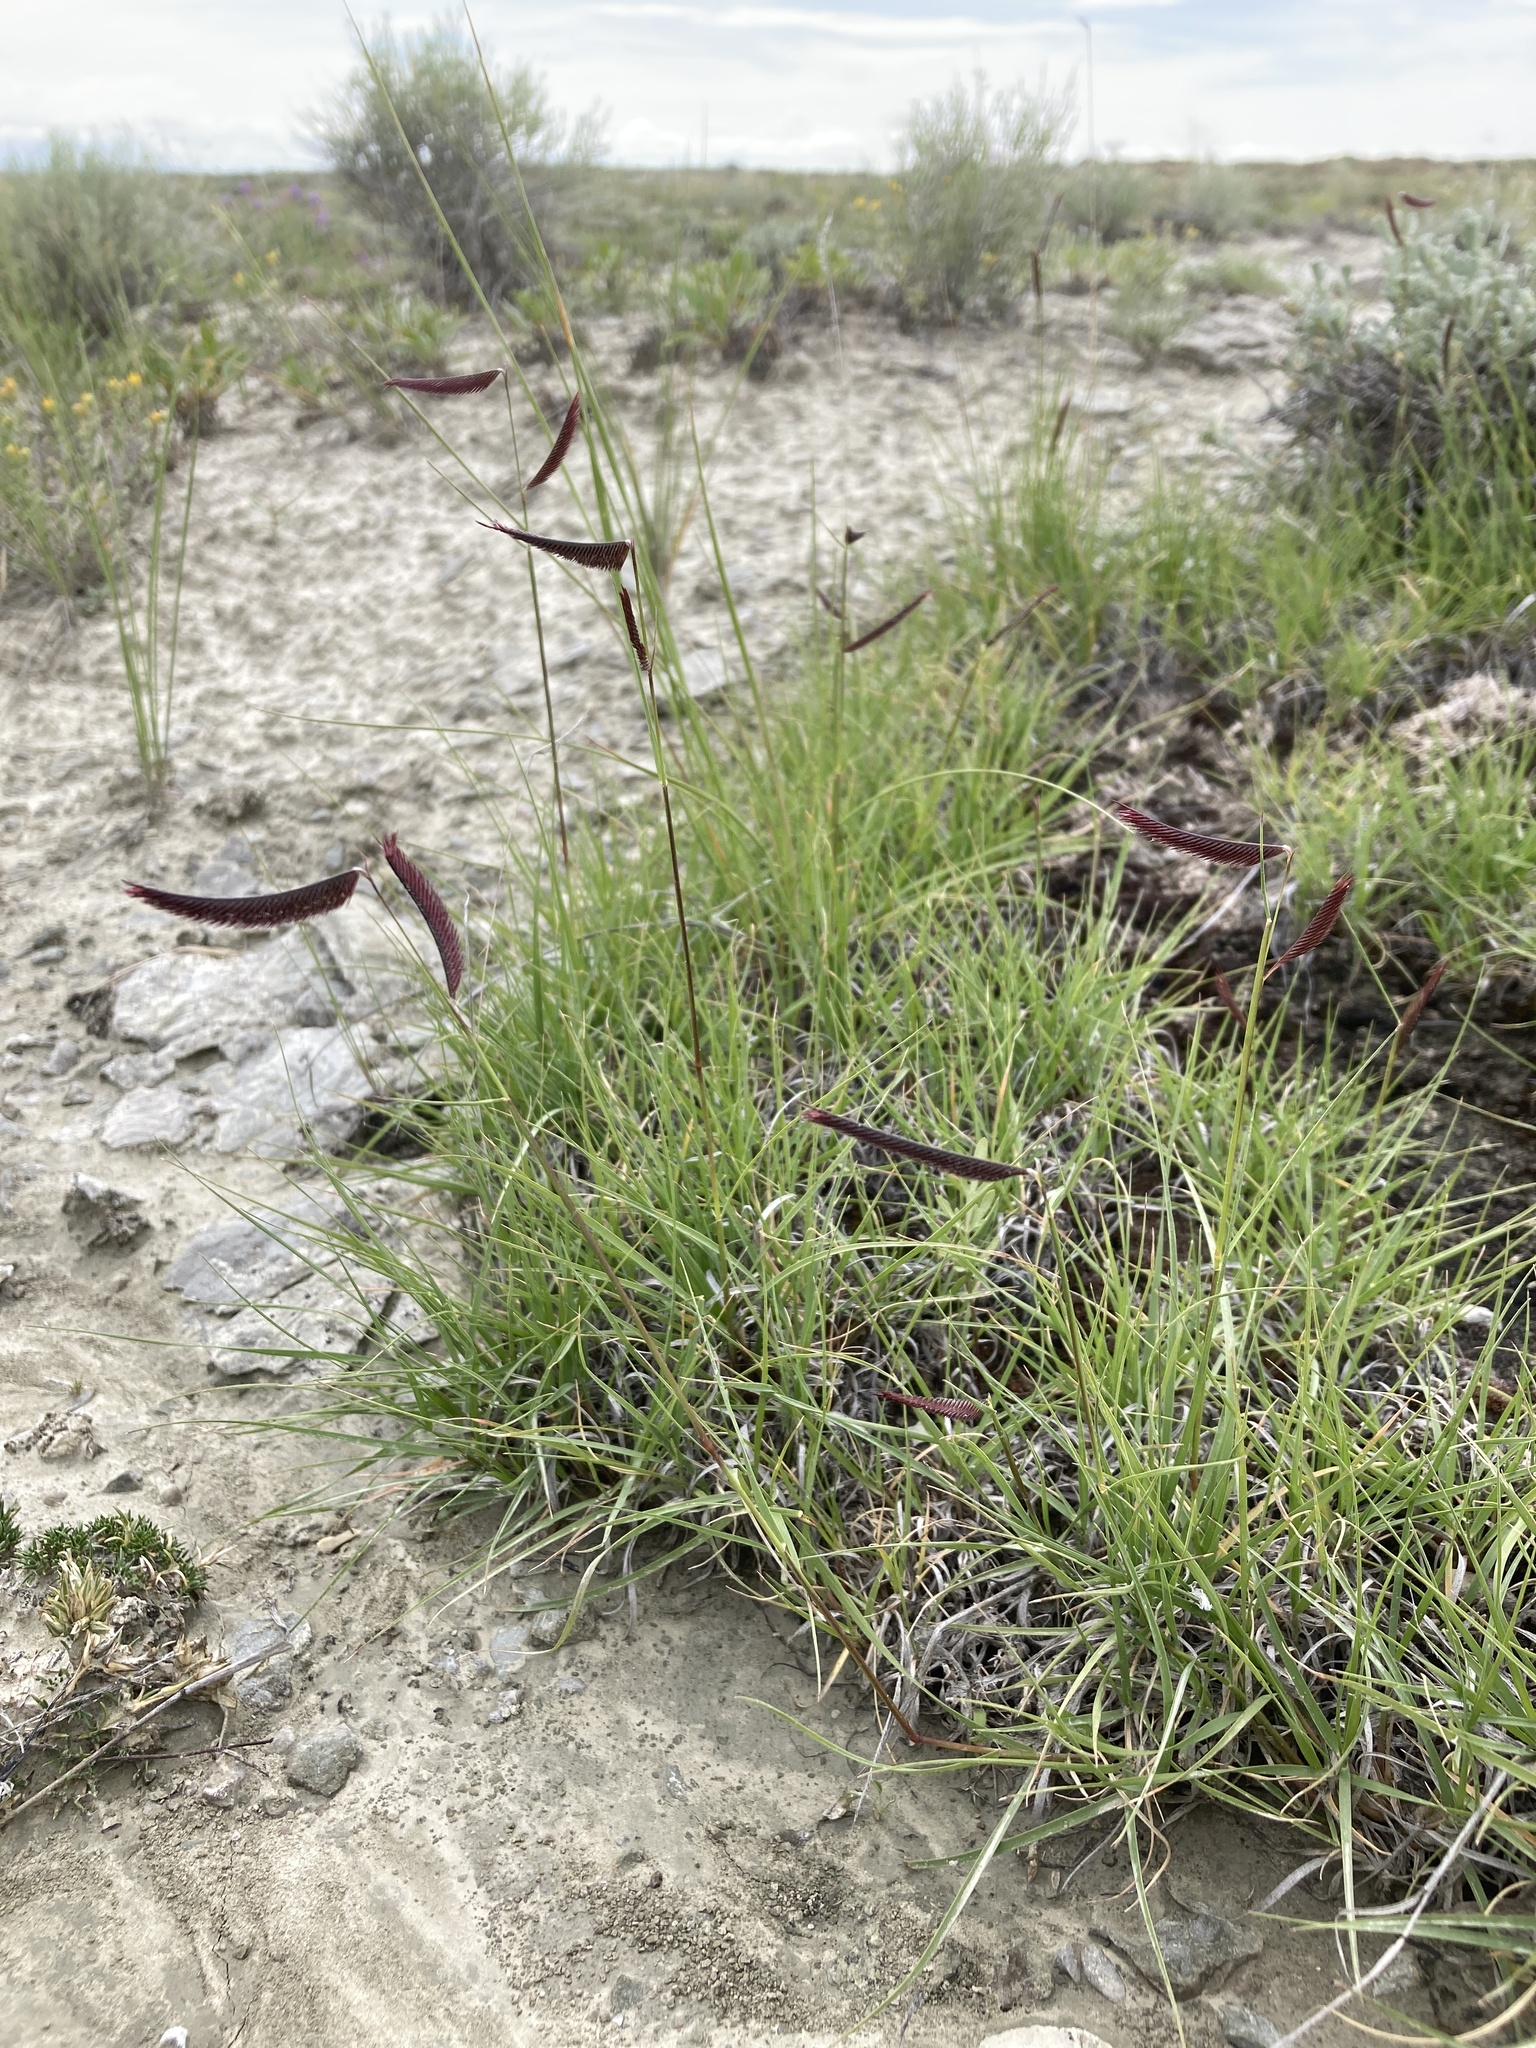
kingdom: Plantae
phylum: Tracheophyta
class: Liliopsida
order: Poales
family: Poaceae
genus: Bouteloua
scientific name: Bouteloua gracilis
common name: Blue grama
